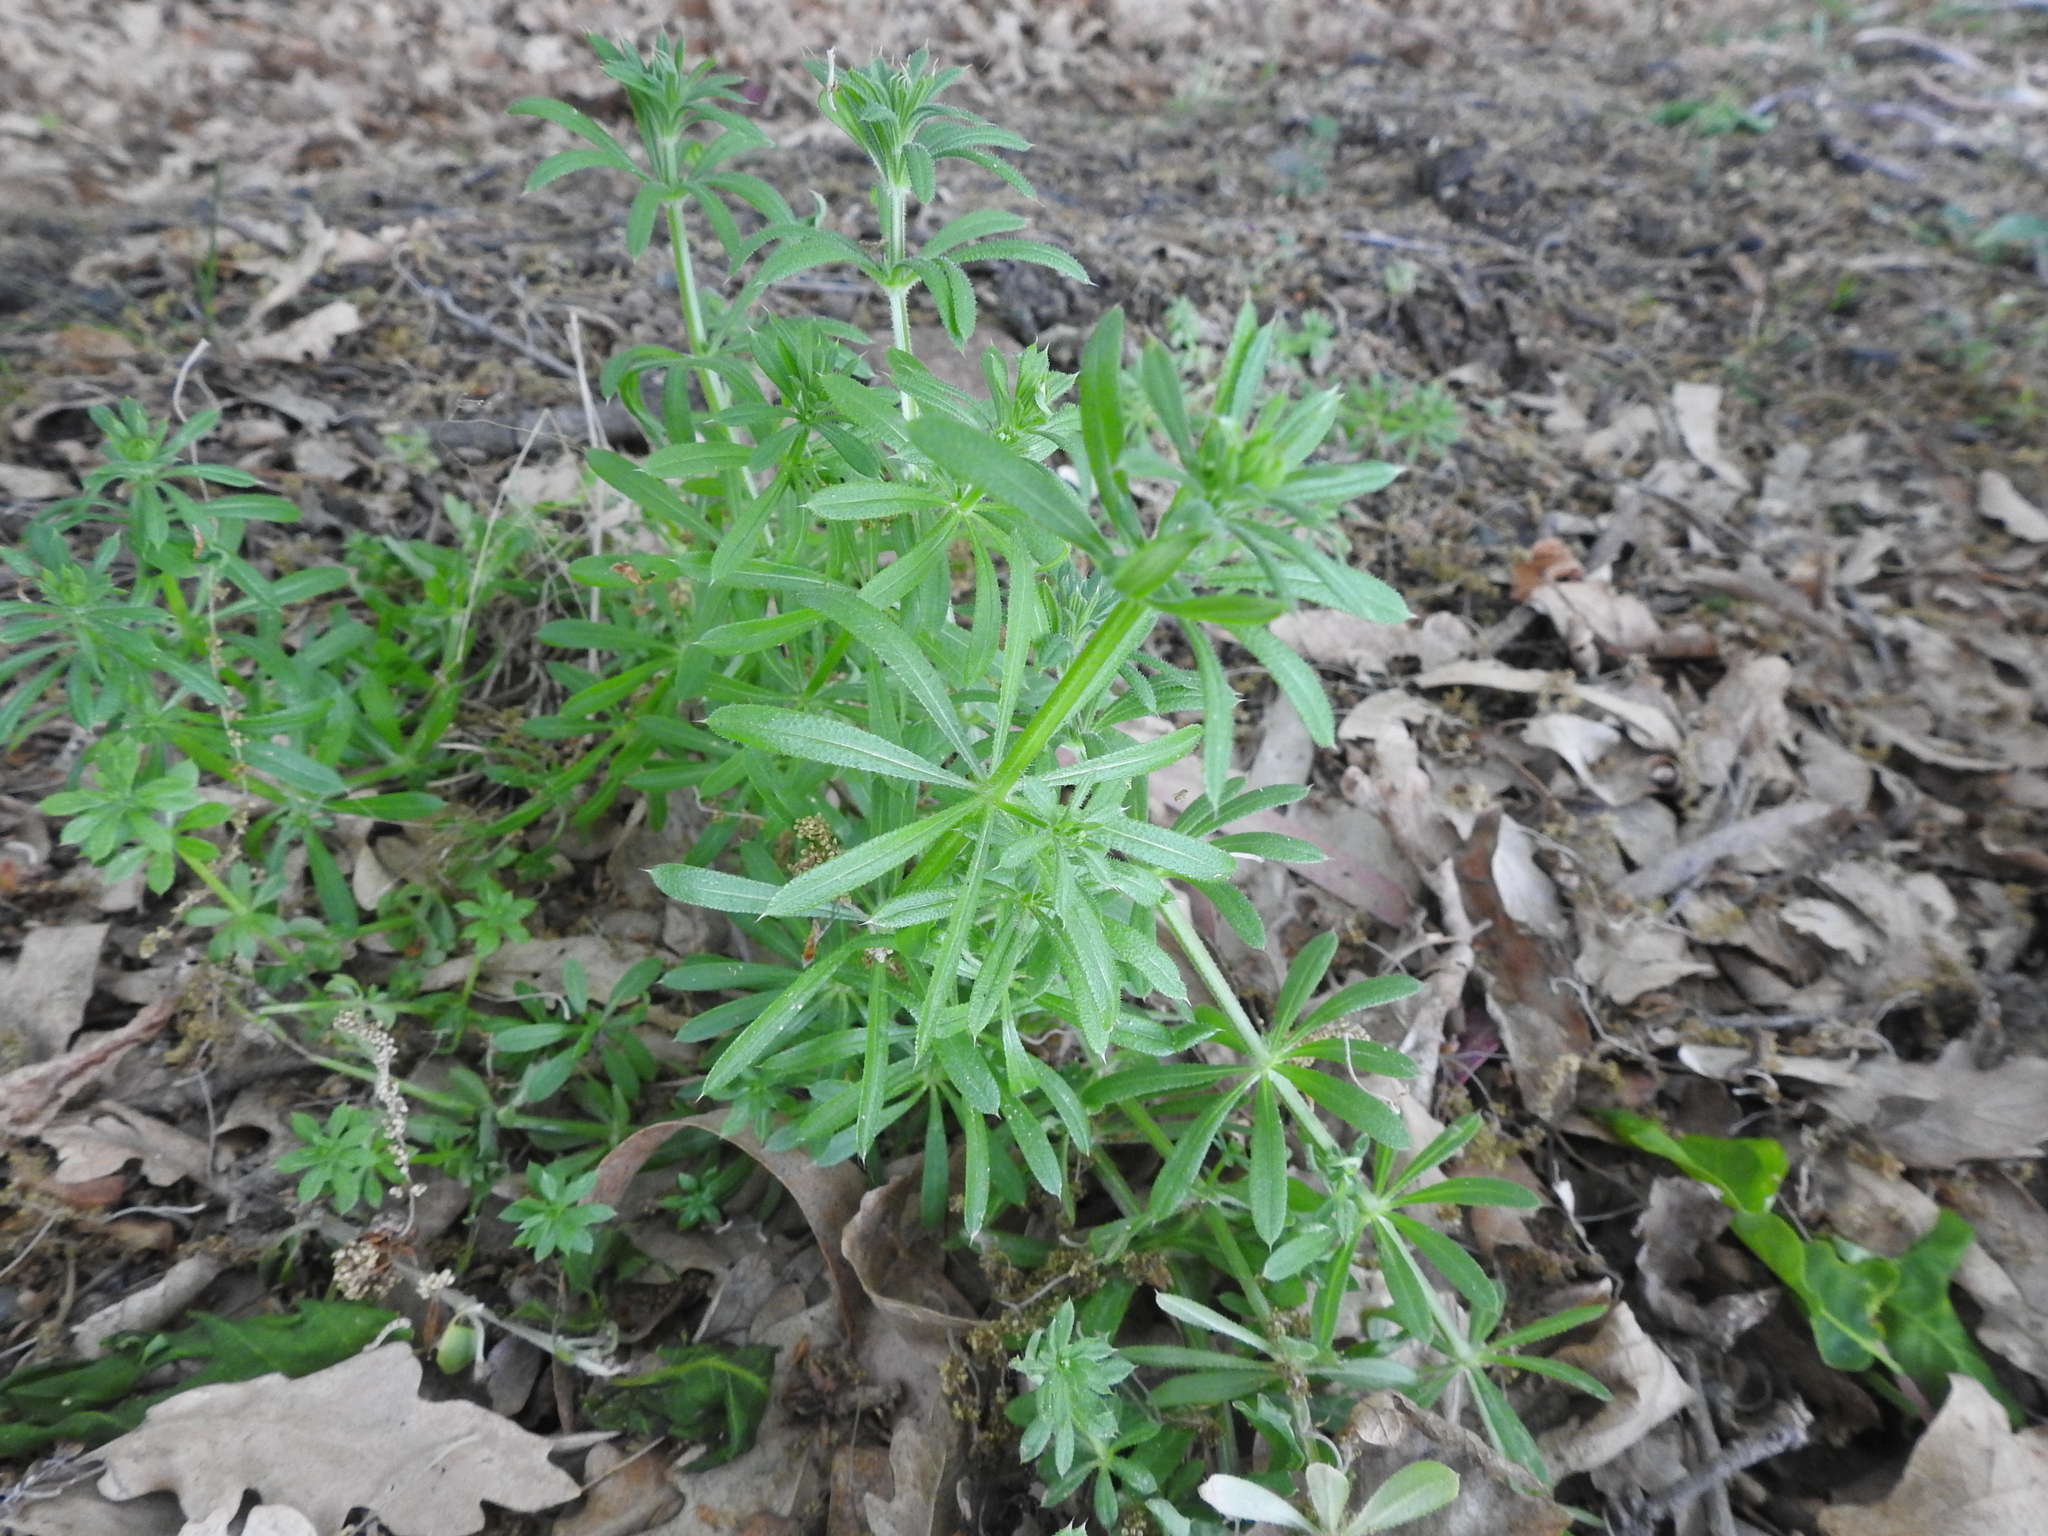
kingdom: Plantae
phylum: Tracheophyta
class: Magnoliopsida
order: Gentianales
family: Rubiaceae
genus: Galium
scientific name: Galium aparine
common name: Cleavers
